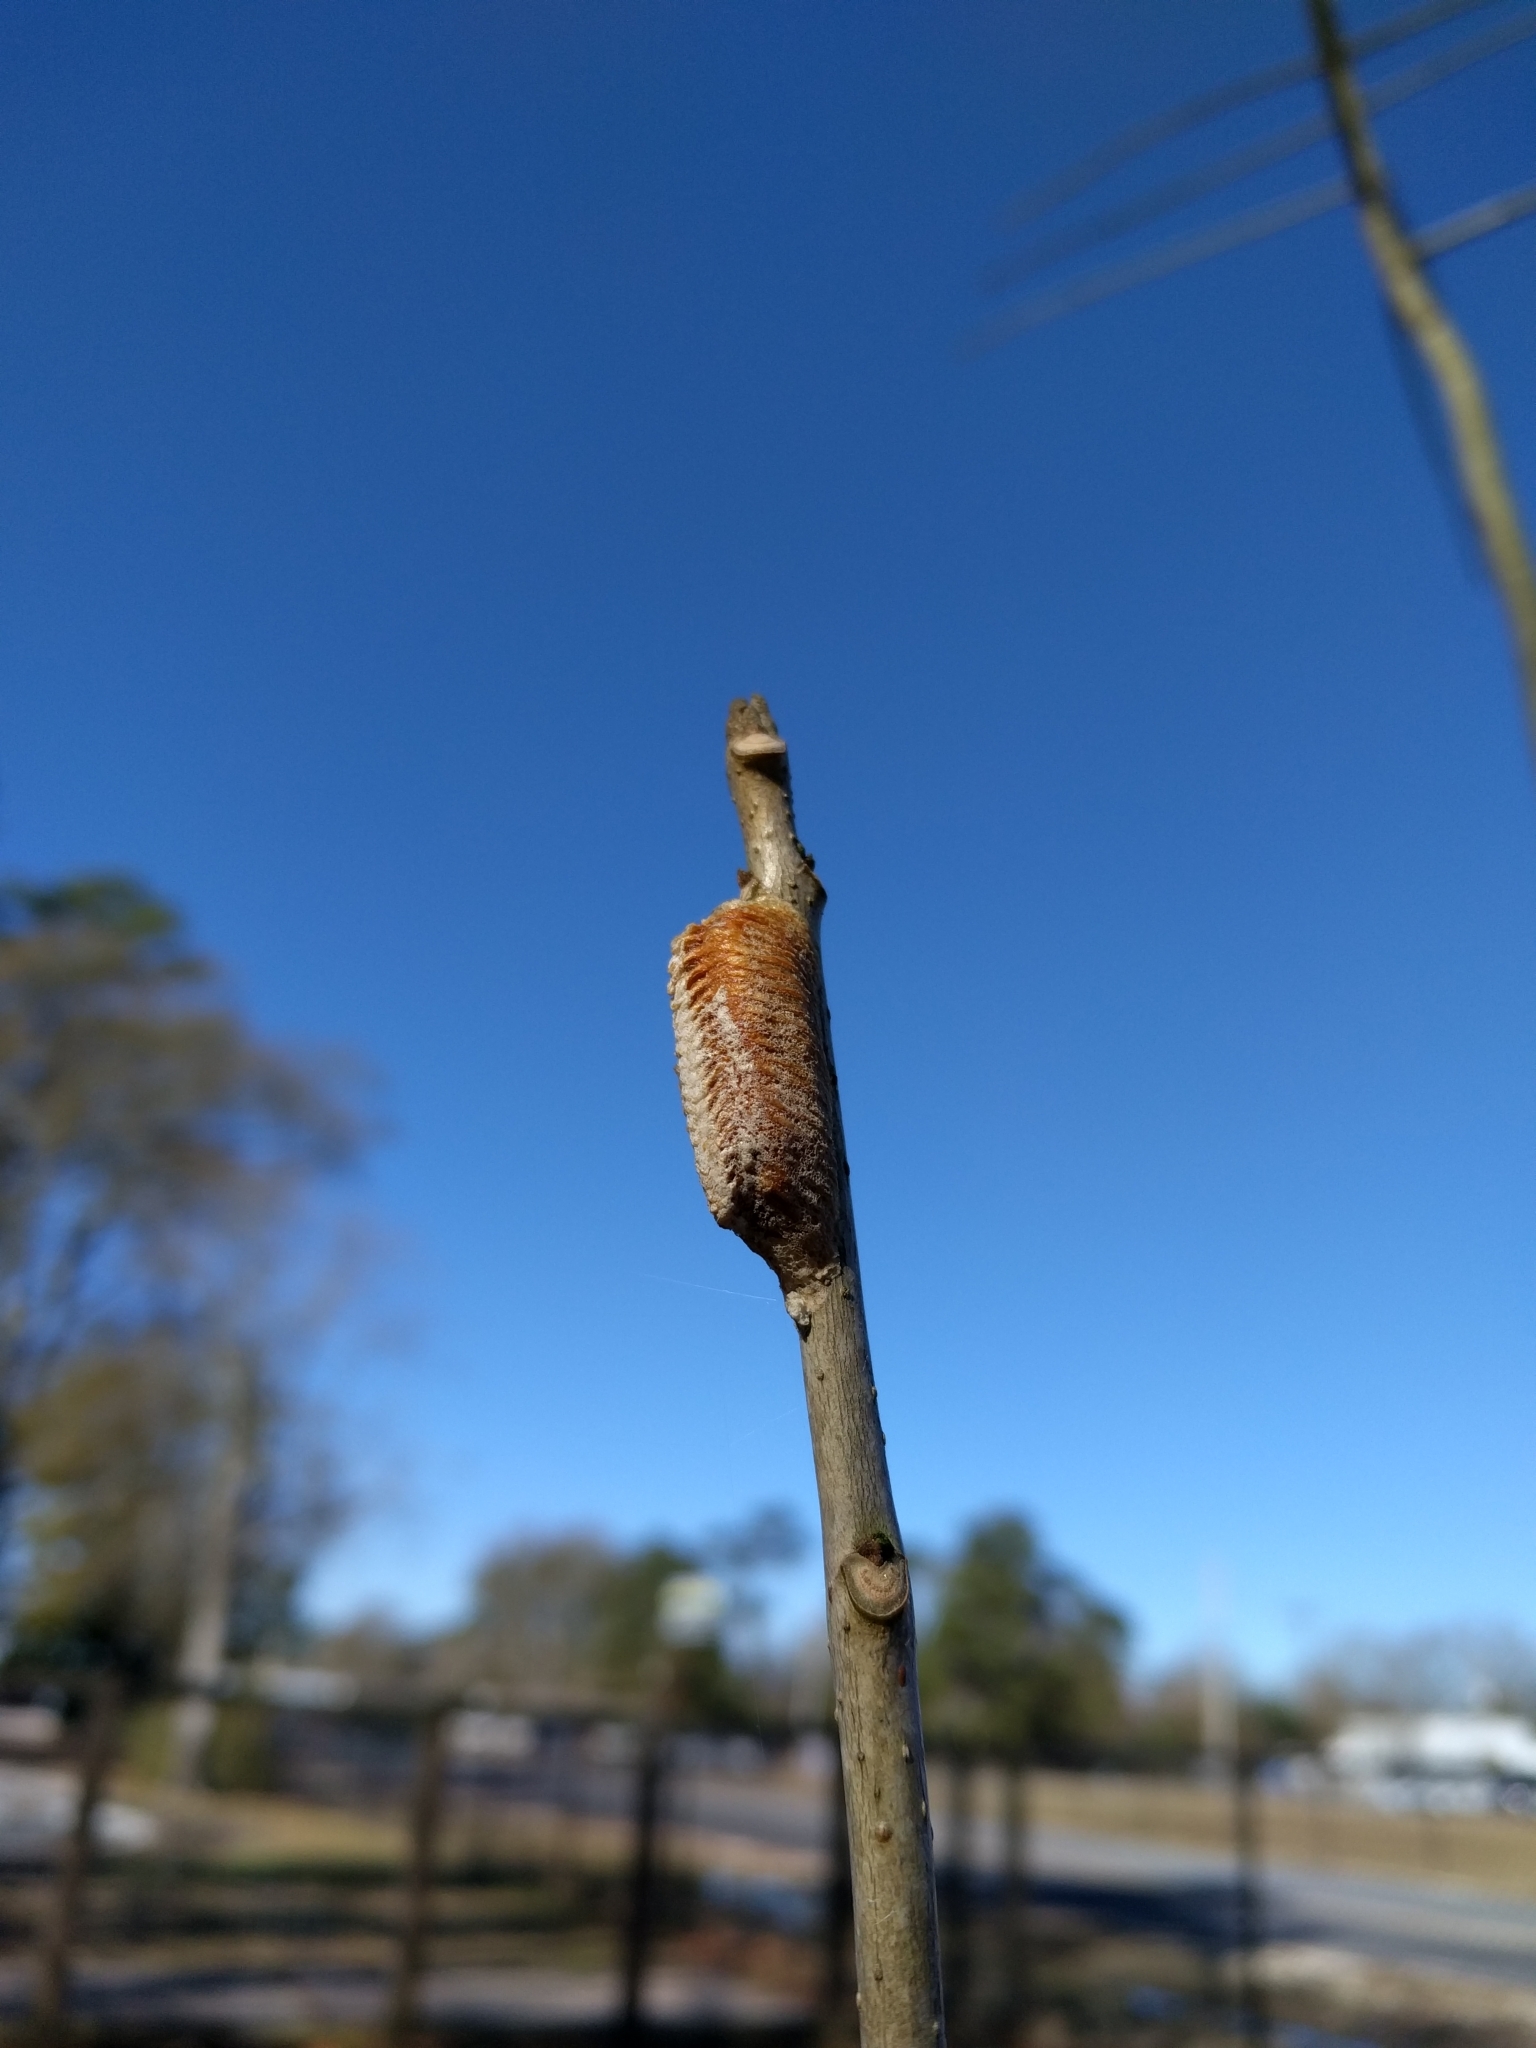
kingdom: Animalia
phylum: Arthropoda
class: Insecta
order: Mantodea
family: Mantidae
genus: Stagmomantis
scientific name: Stagmomantis carolina
